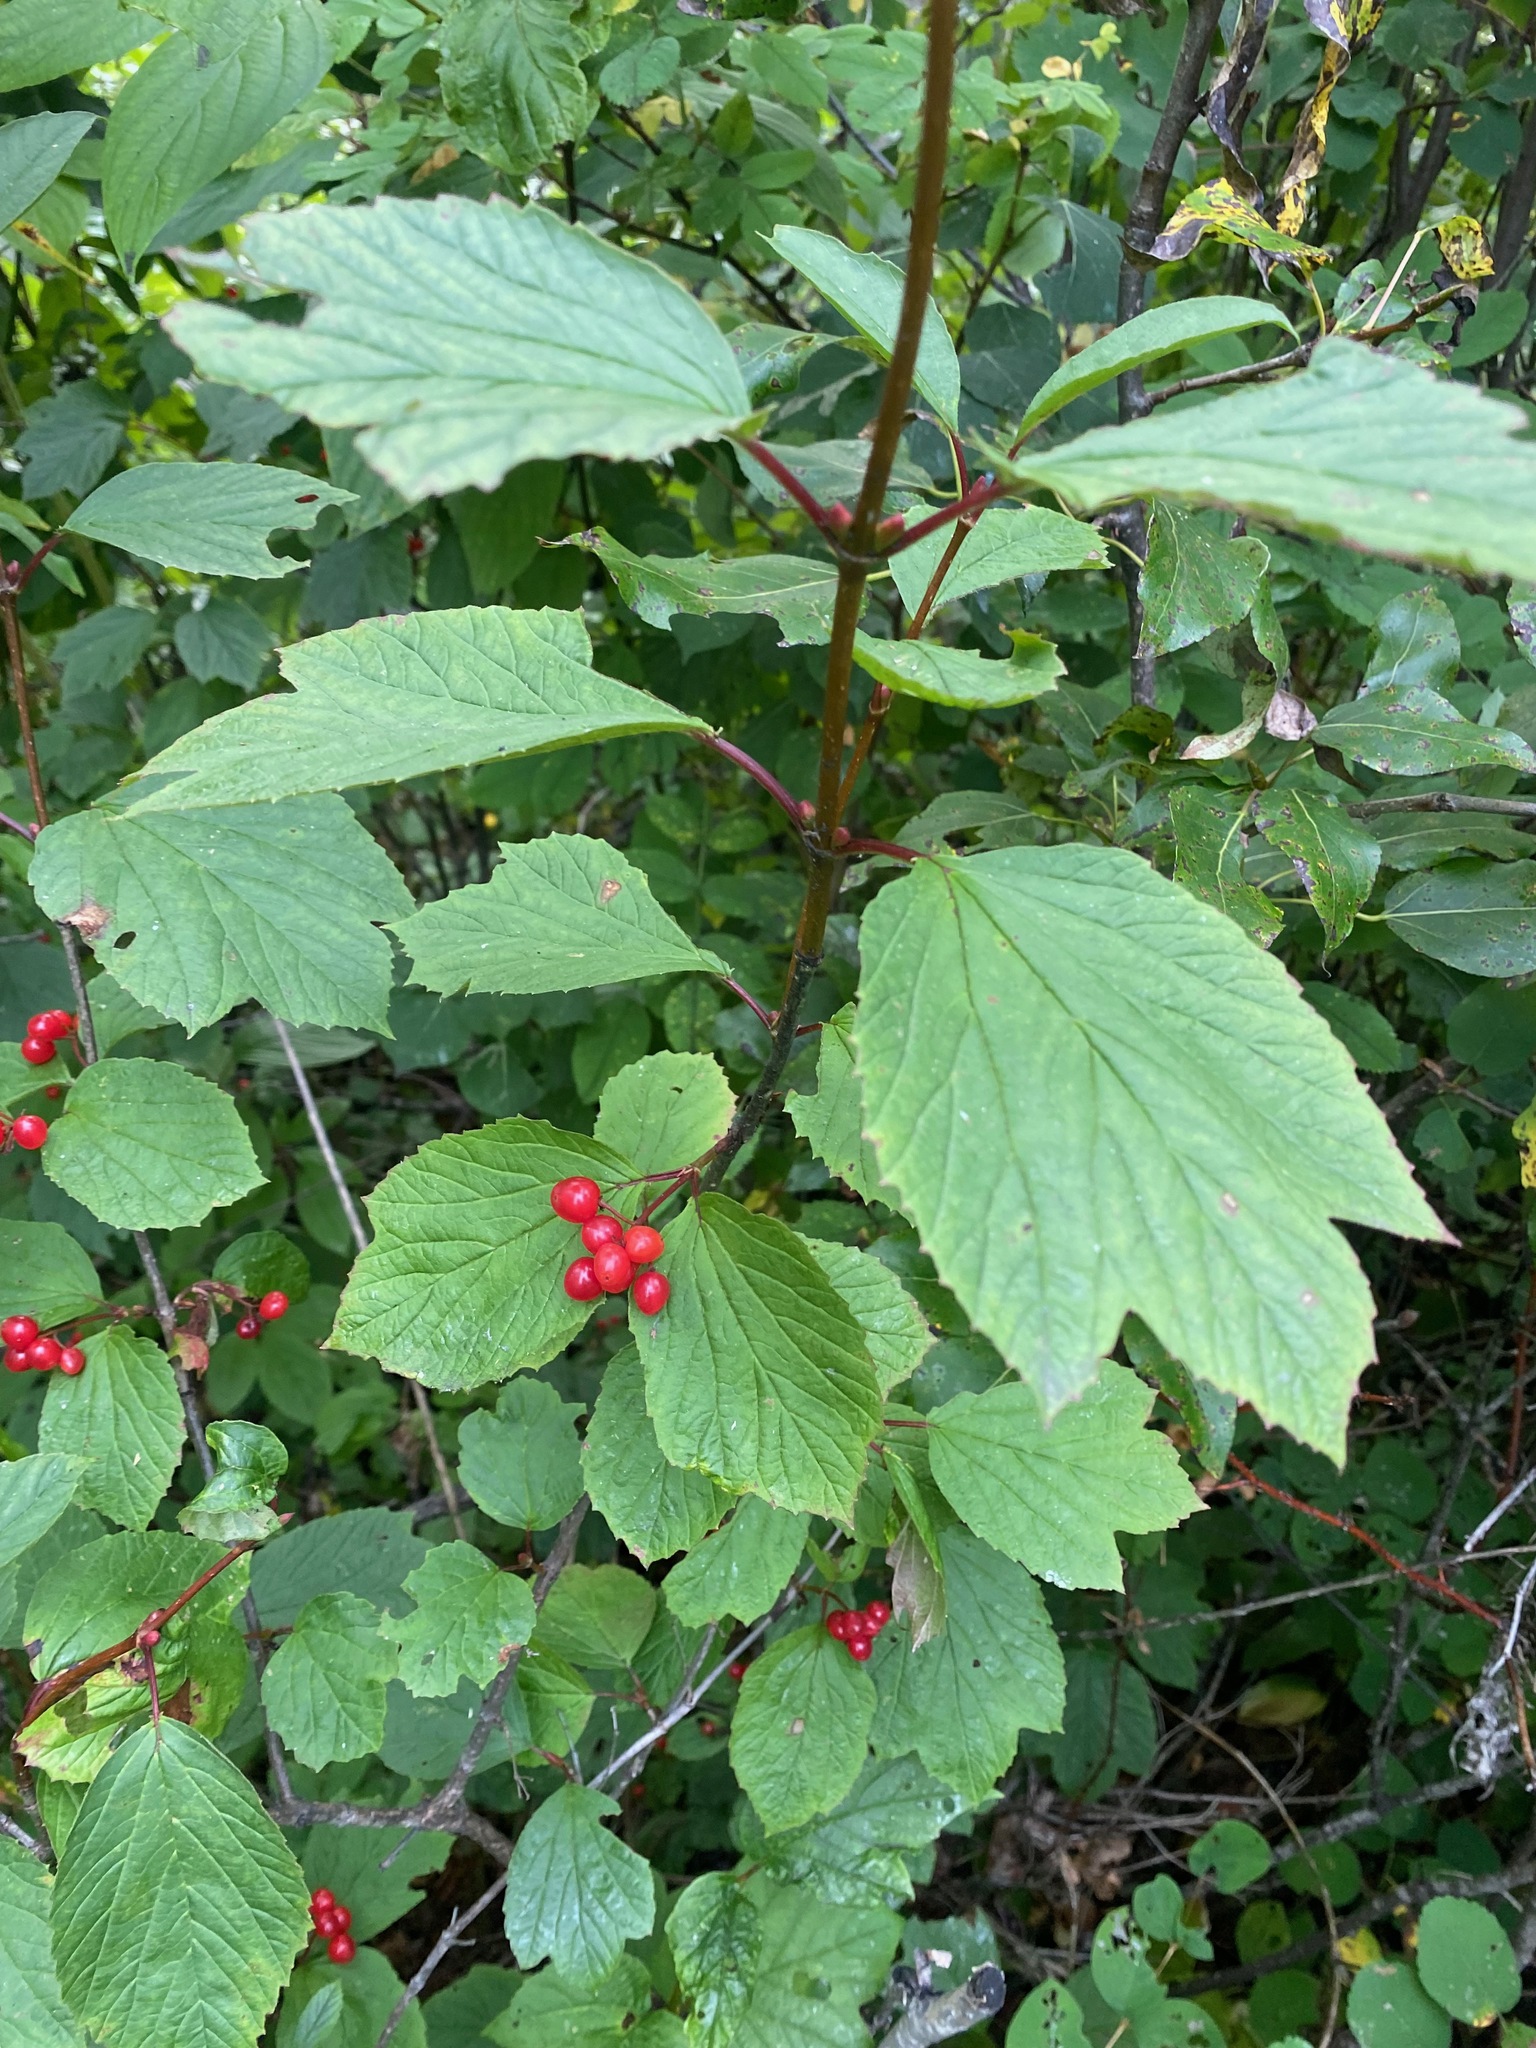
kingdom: Plantae
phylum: Tracheophyta
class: Magnoliopsida
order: Dipsacales
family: Viburnaceae
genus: Viburnum
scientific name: Viburnum edule
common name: Mooseberry
